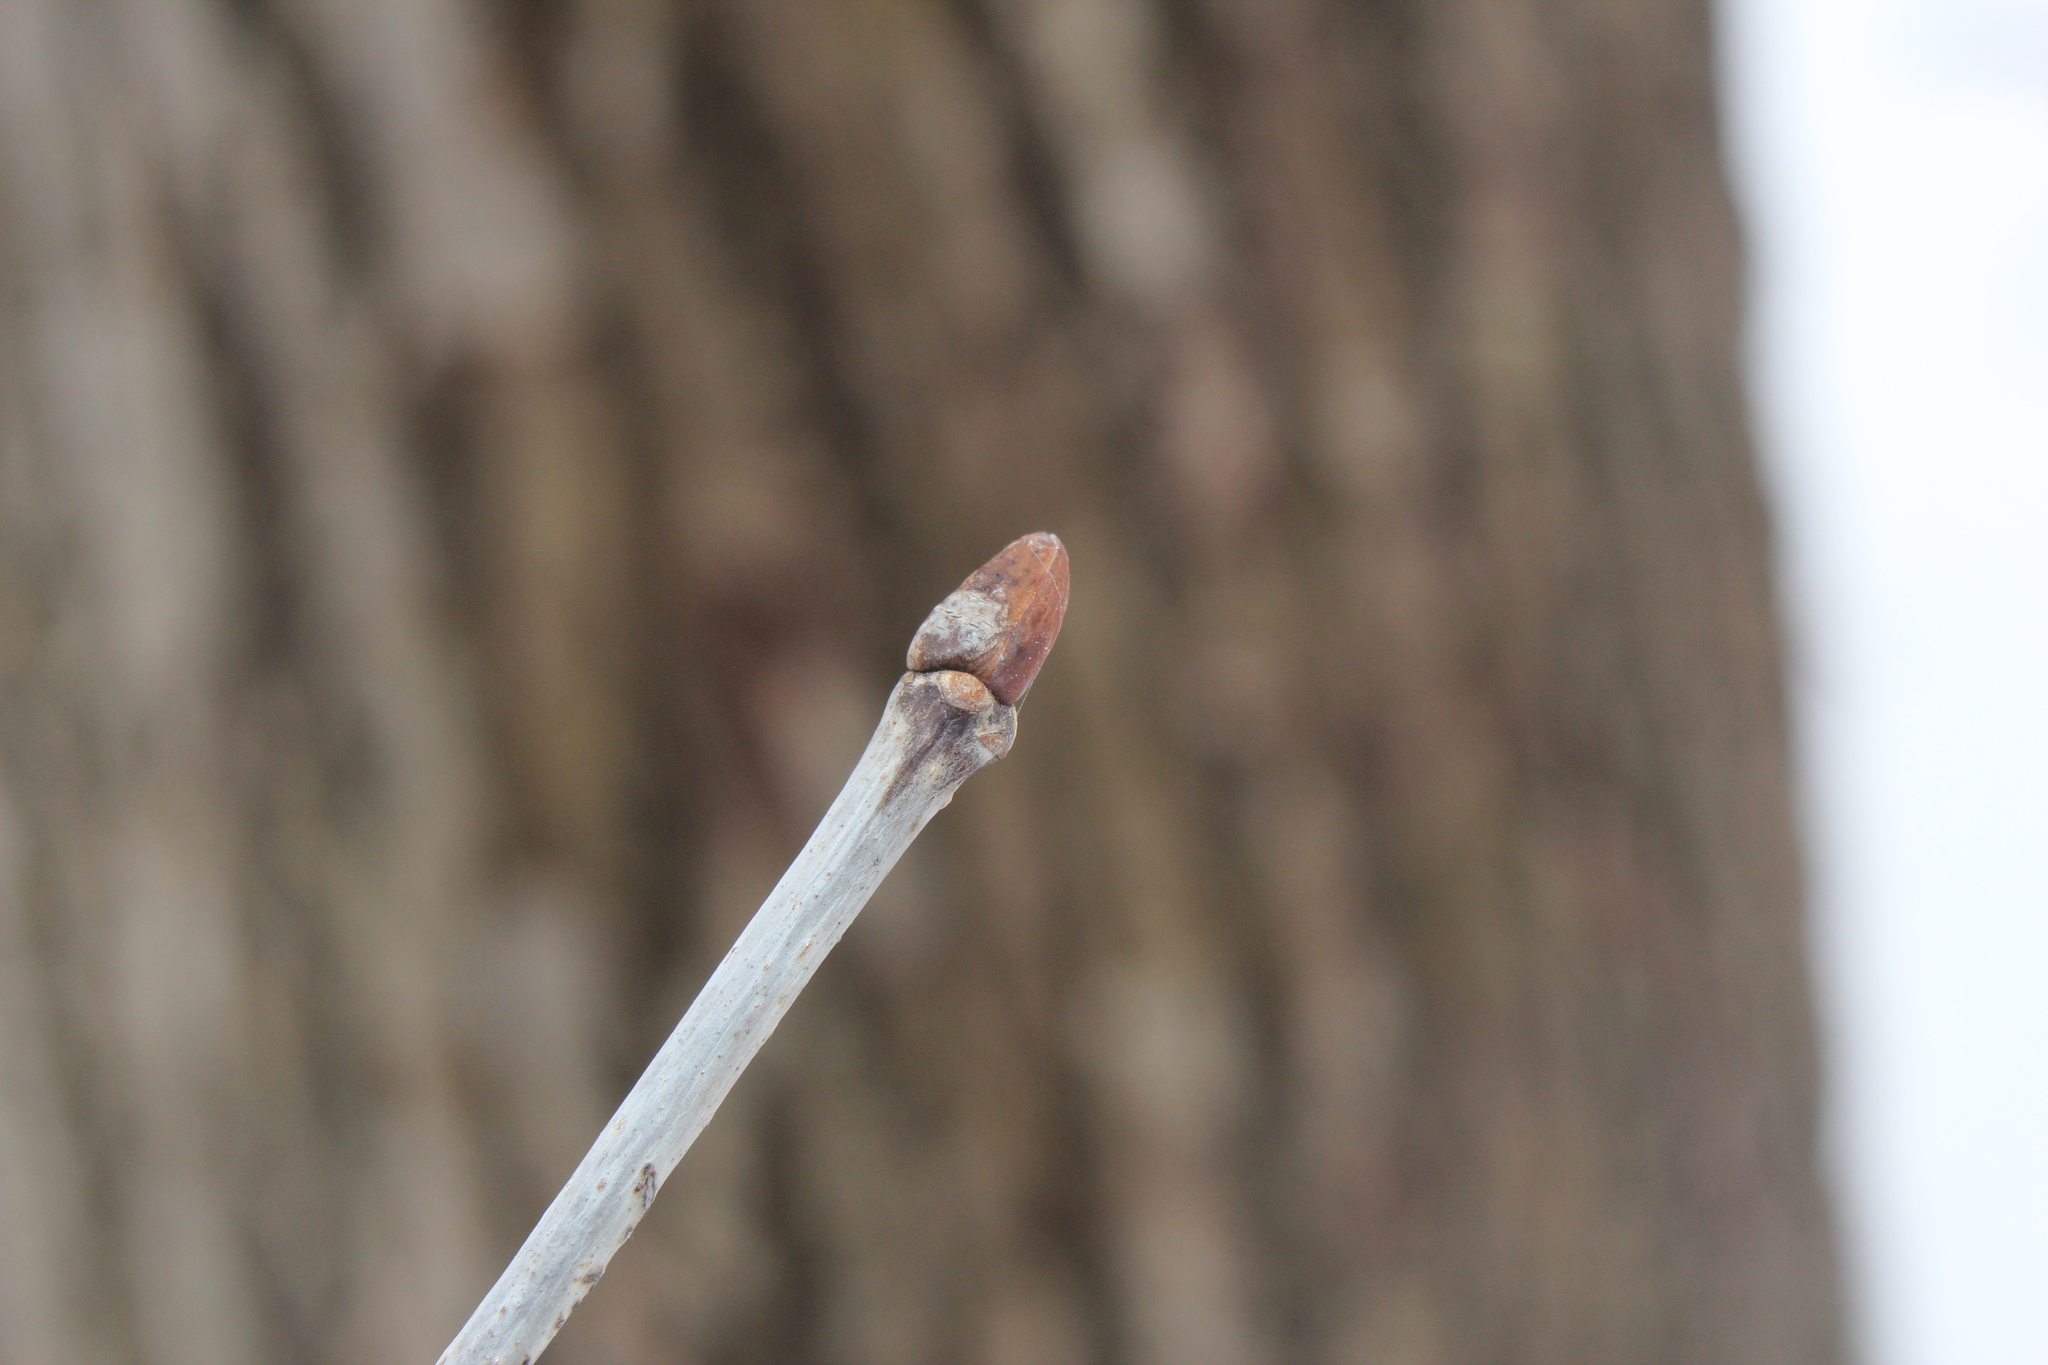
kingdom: Plantae
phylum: Tracheophyta
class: Magnoliopsida
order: Malvales
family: Malvaceae
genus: Tilia
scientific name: Tilia americana
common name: Basswood
